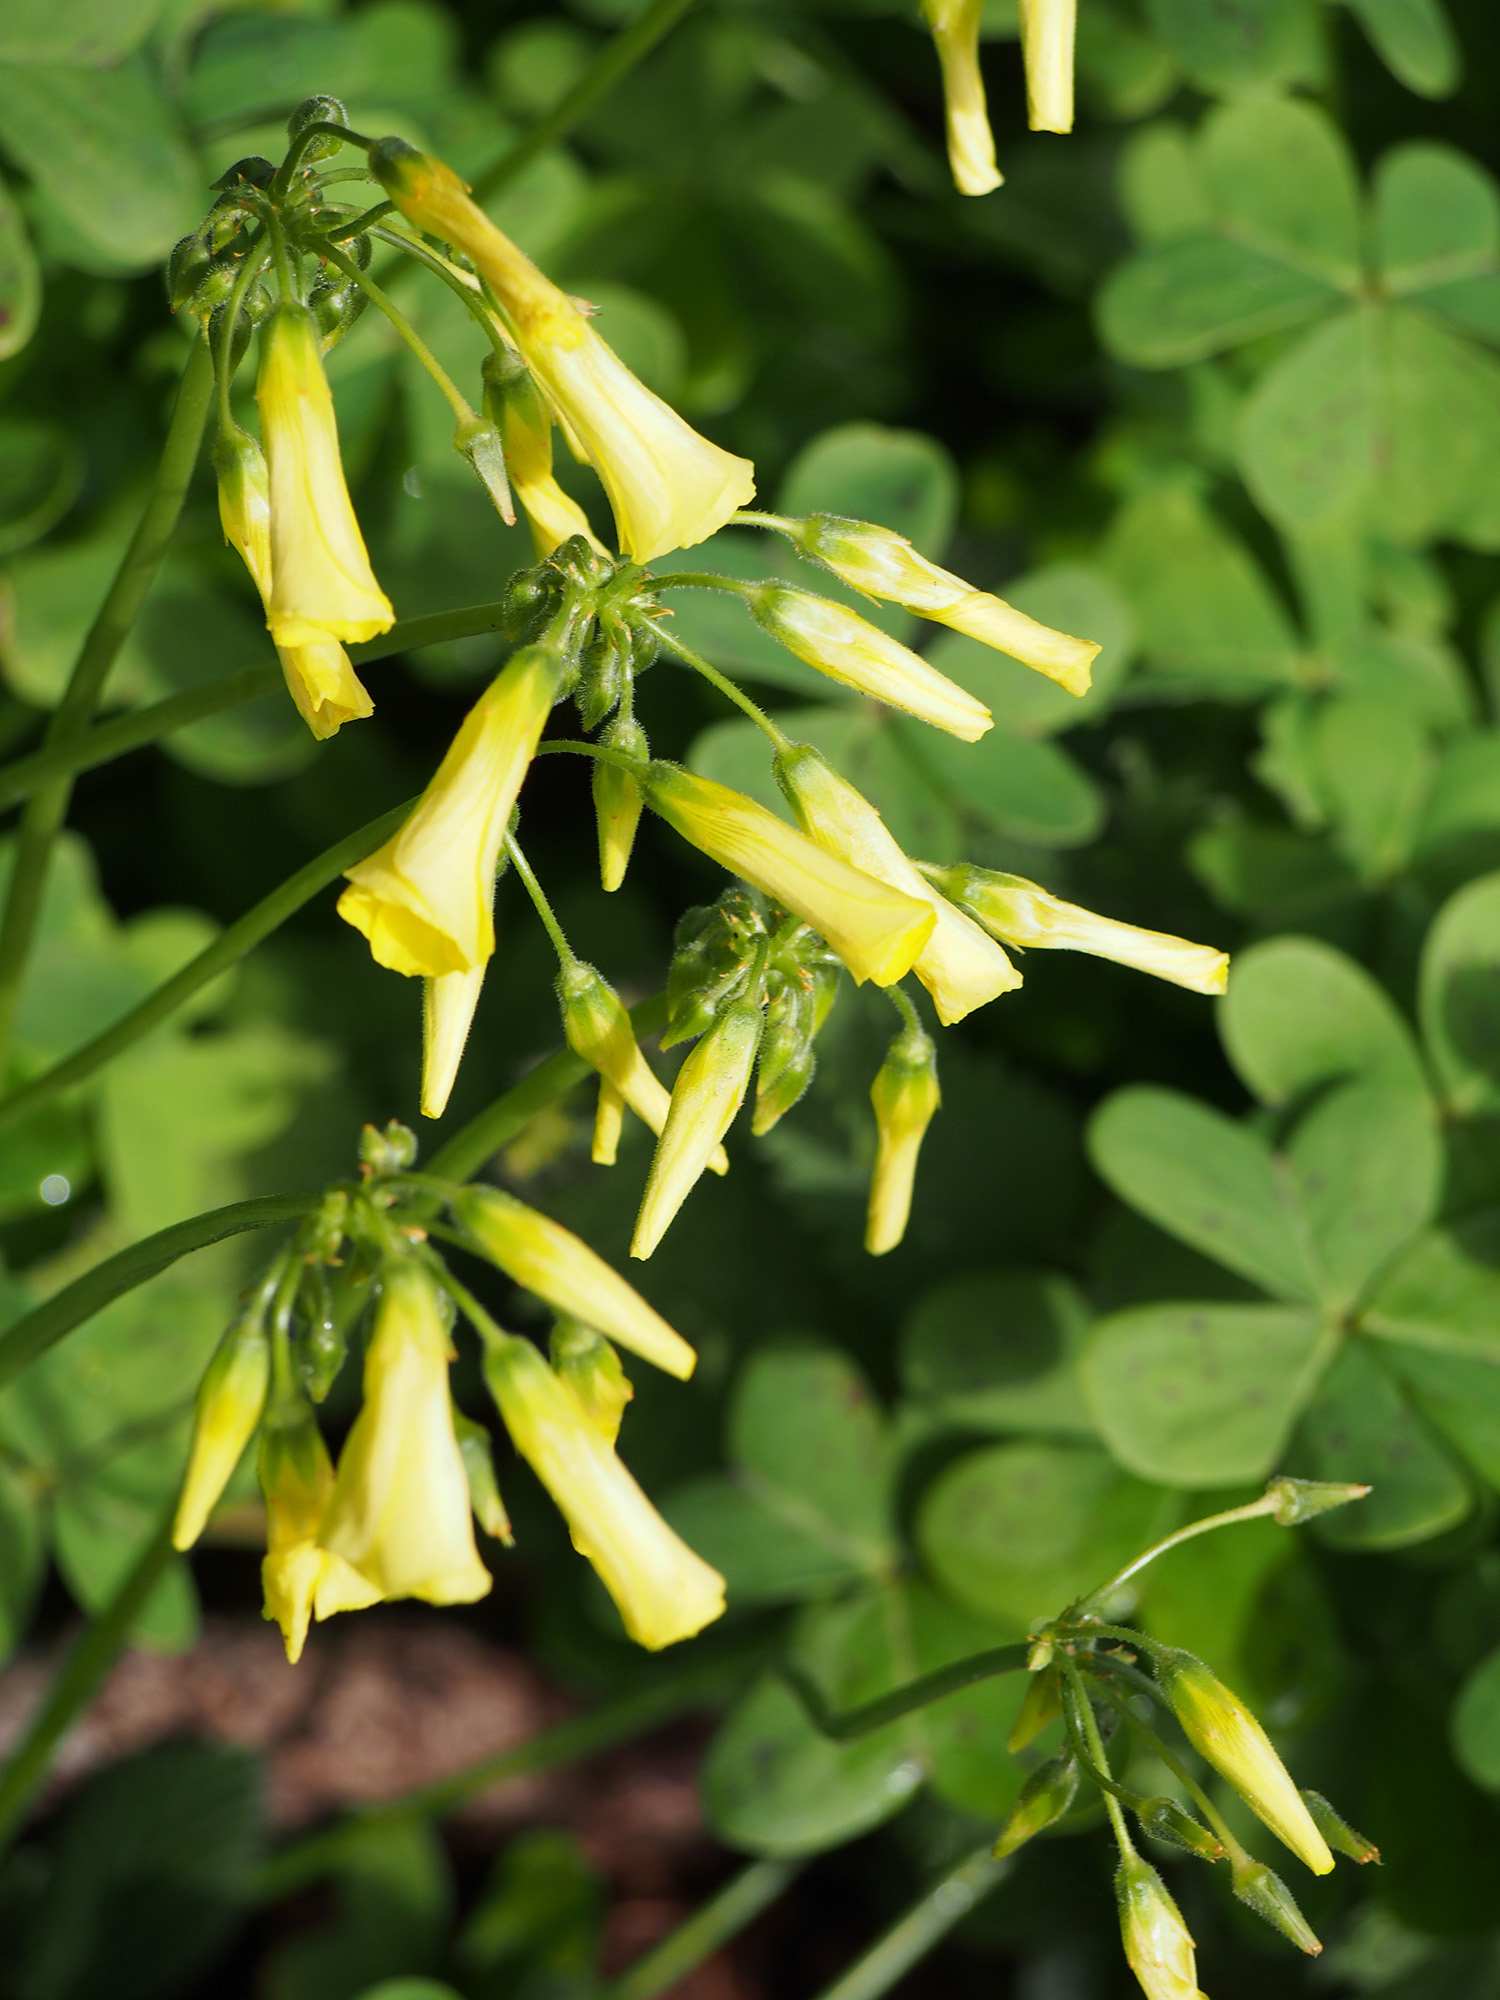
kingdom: Plantae
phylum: Tracheophyta
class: Magnoliopsida
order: Oxalidales
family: Oxalidaceae
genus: Oxalis
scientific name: Oxalis pes-caprae
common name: Bermuda-buttercup
